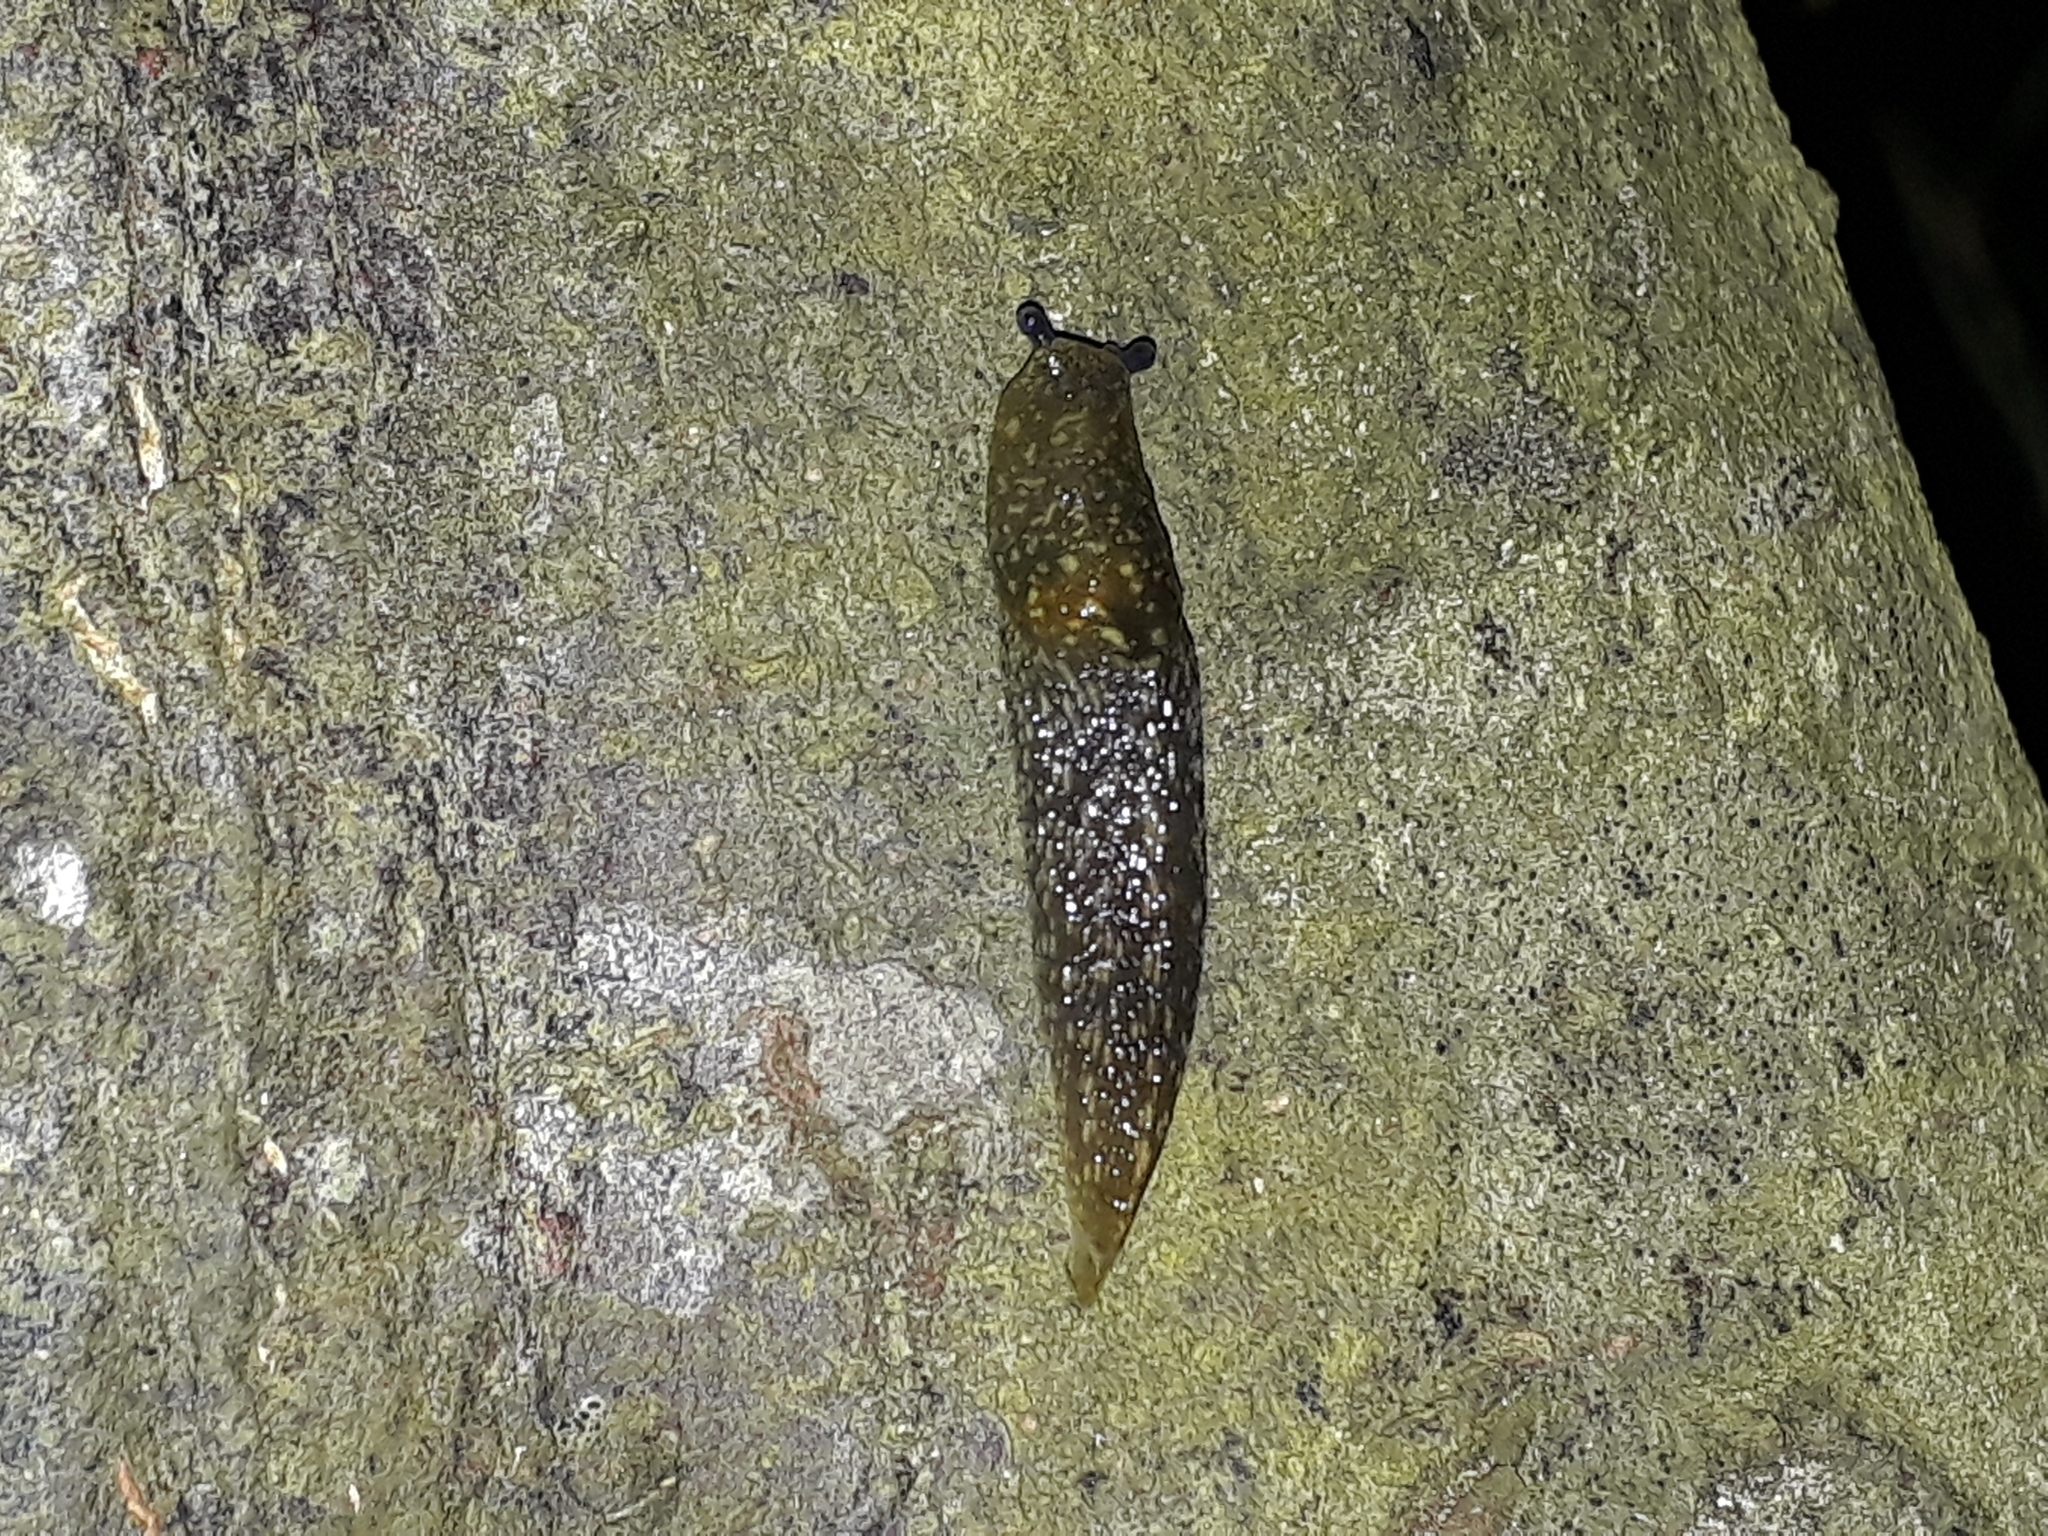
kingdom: Animalia
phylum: Mollusca
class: Gastropoda
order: Stylommatophora
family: Limacidae
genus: Limacus
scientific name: Limacus flavus
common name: Yellow gardenslug
